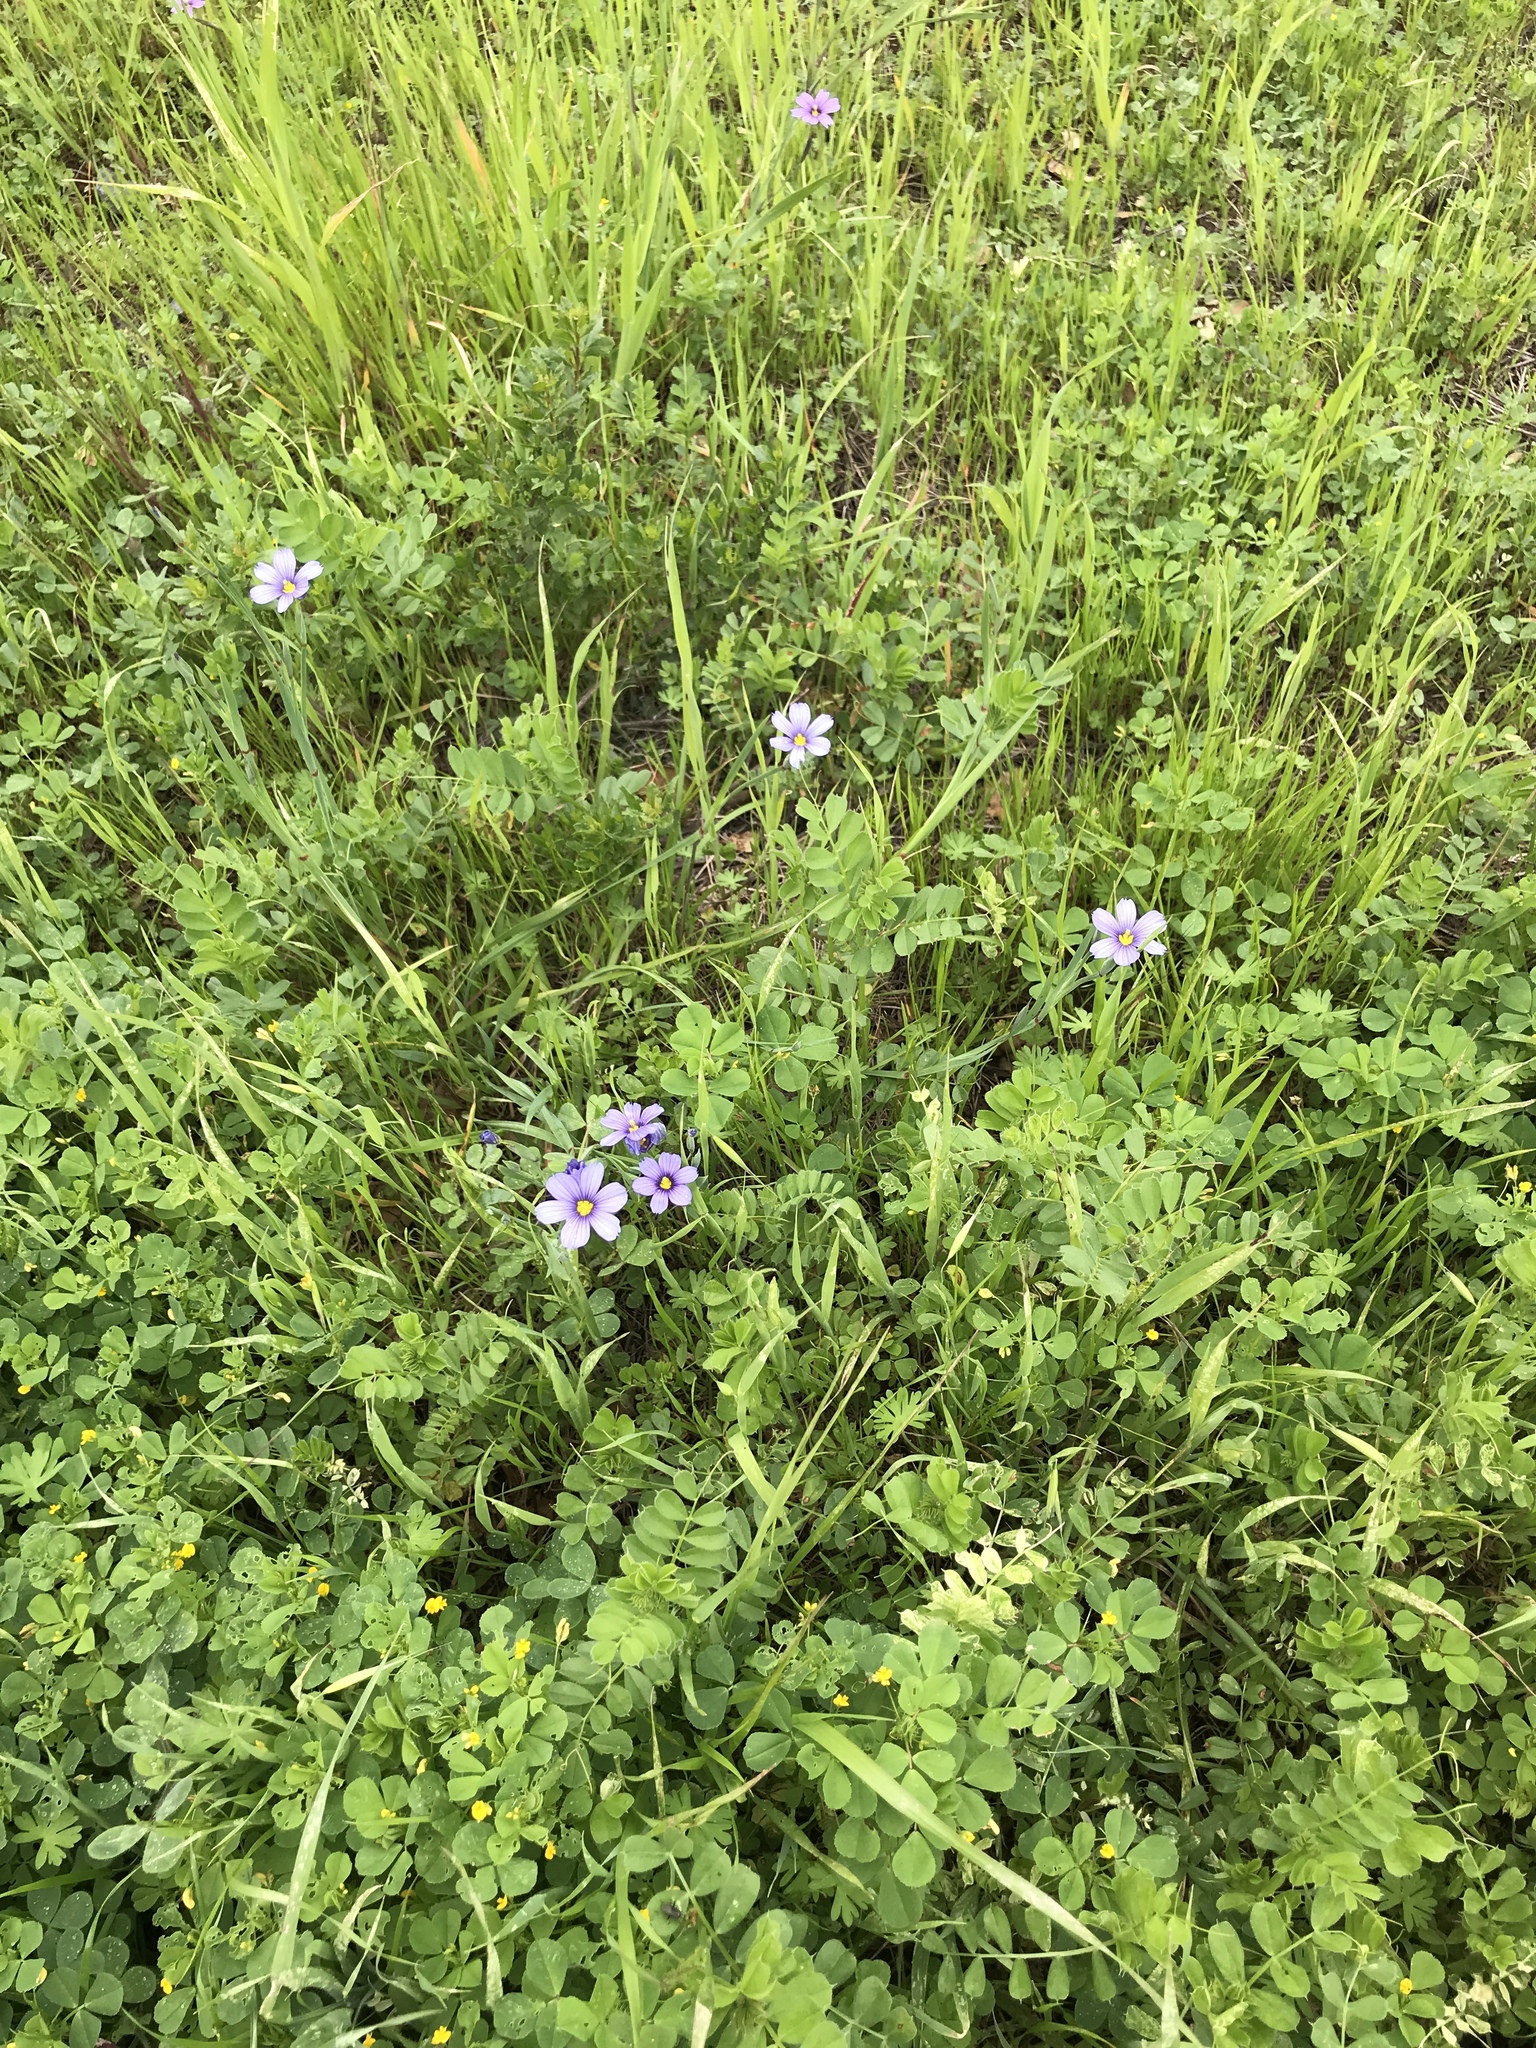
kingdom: Plantae
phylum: Tracheophyta
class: Liliopsida
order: Asparagales
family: Iridaceae
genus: Sisyrinchium
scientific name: Sisyrinchium bellum
